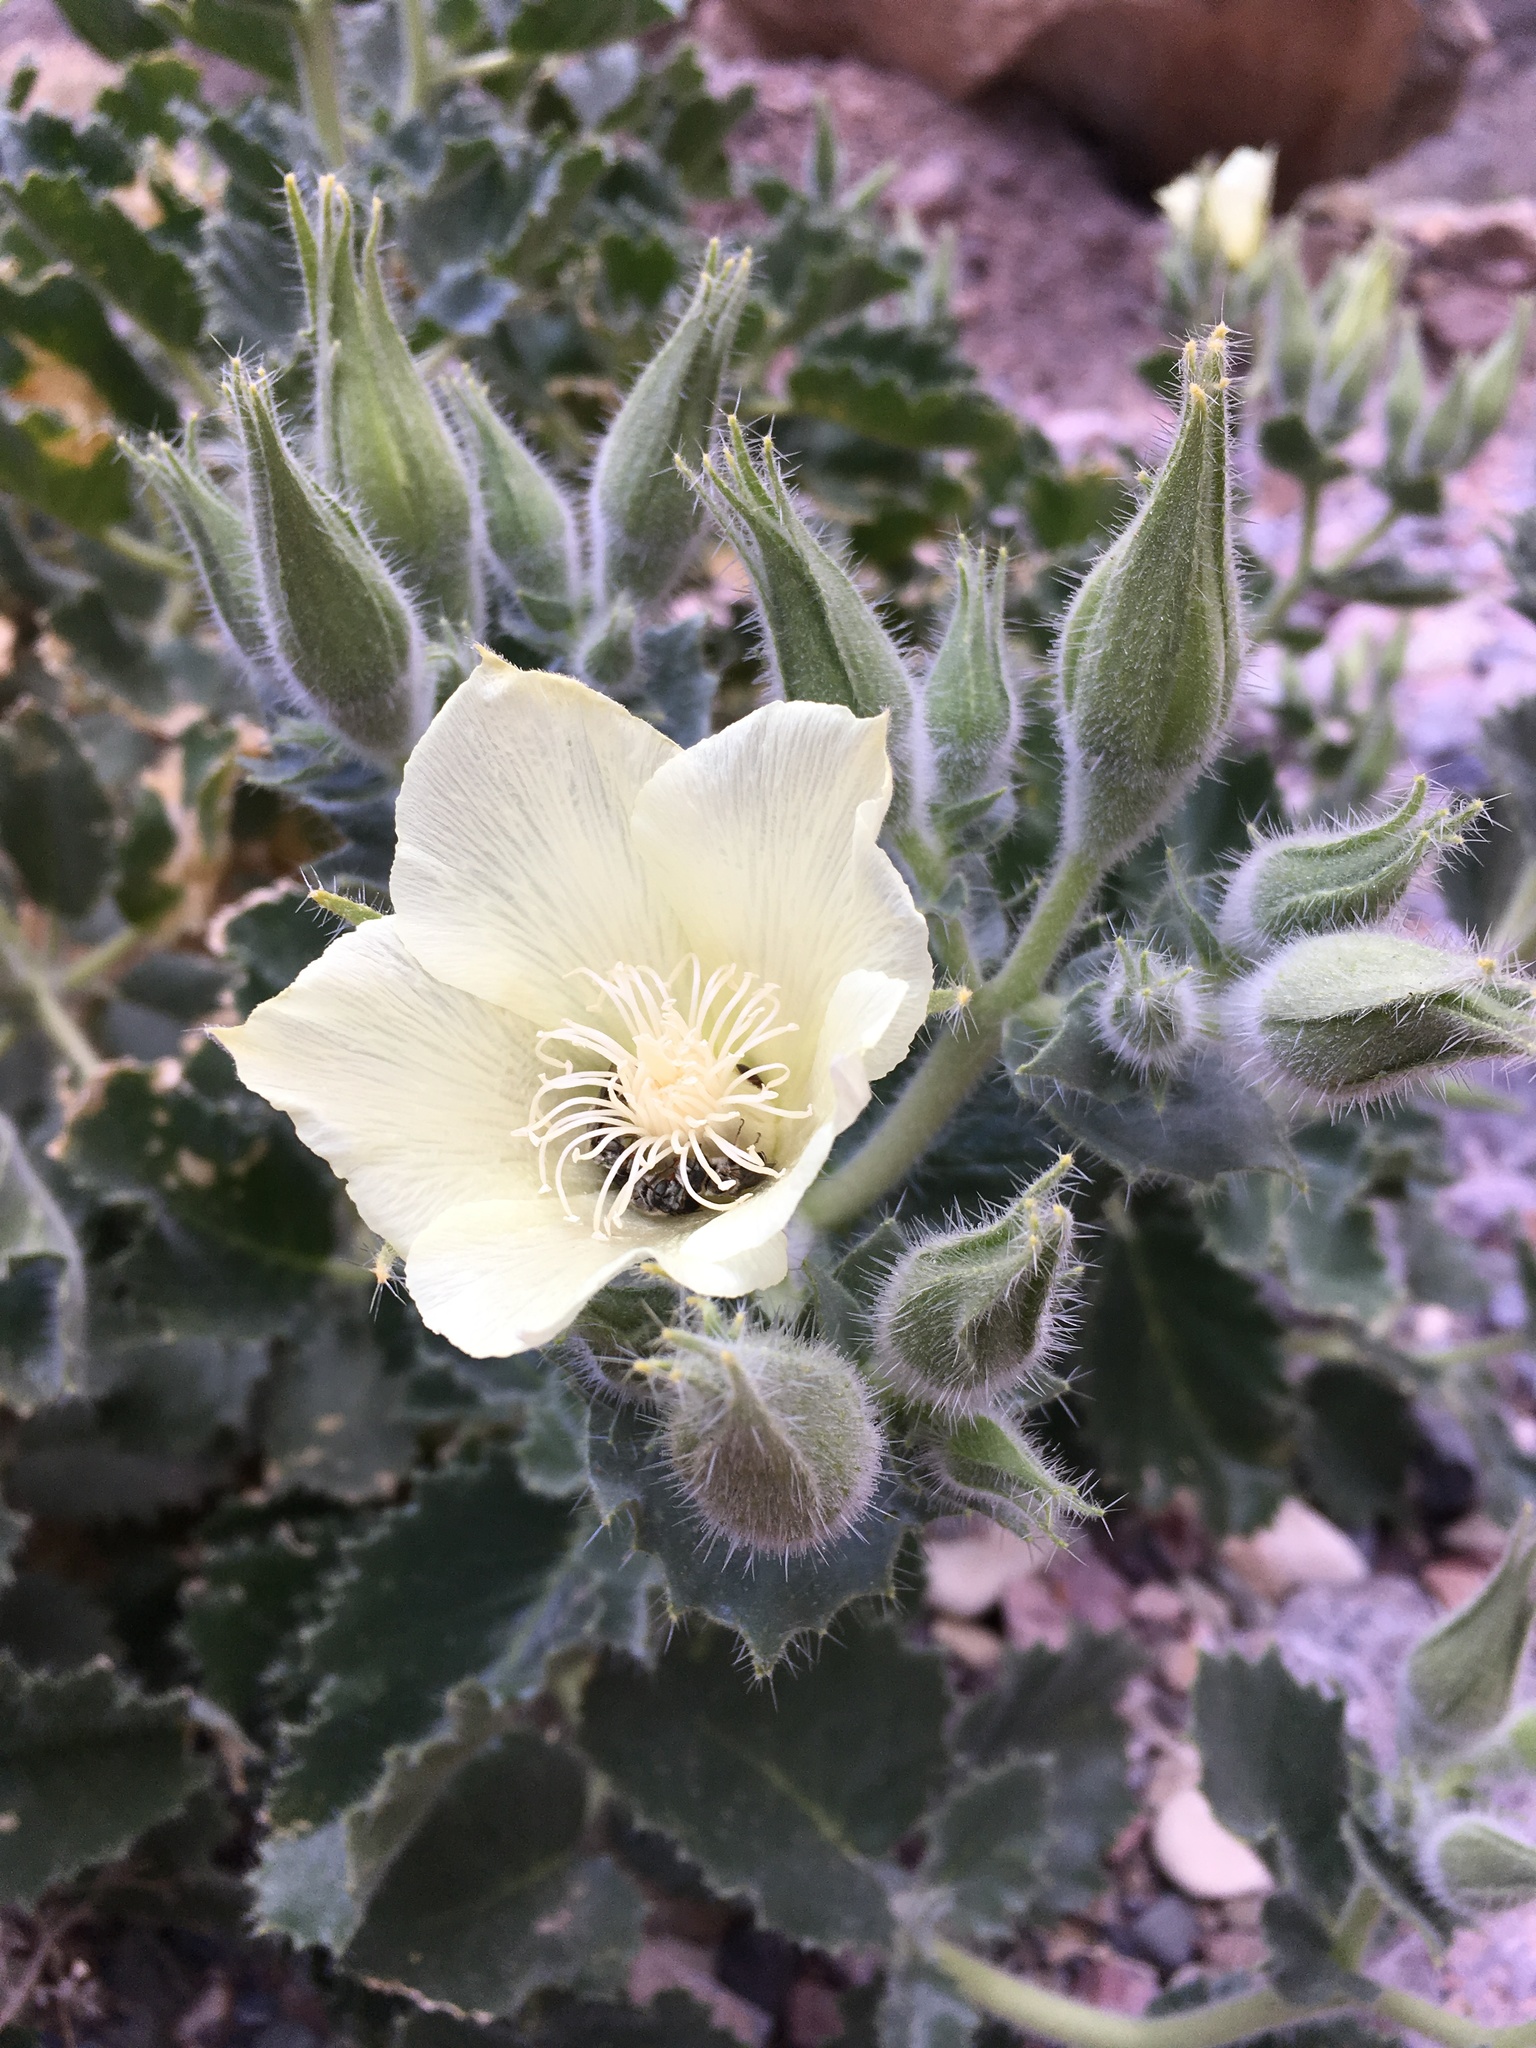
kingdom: Plantae
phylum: Tracheophyta
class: Magnoliopsida
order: Cornales
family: Loasaceae
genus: Eucnide
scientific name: Eucnide urens
